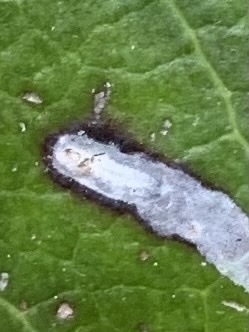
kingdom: Animalia
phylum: Arthropoda
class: Insecta
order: Lepidoptera
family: Gracillariidae
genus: Marmara
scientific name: Marmara arbutiella
